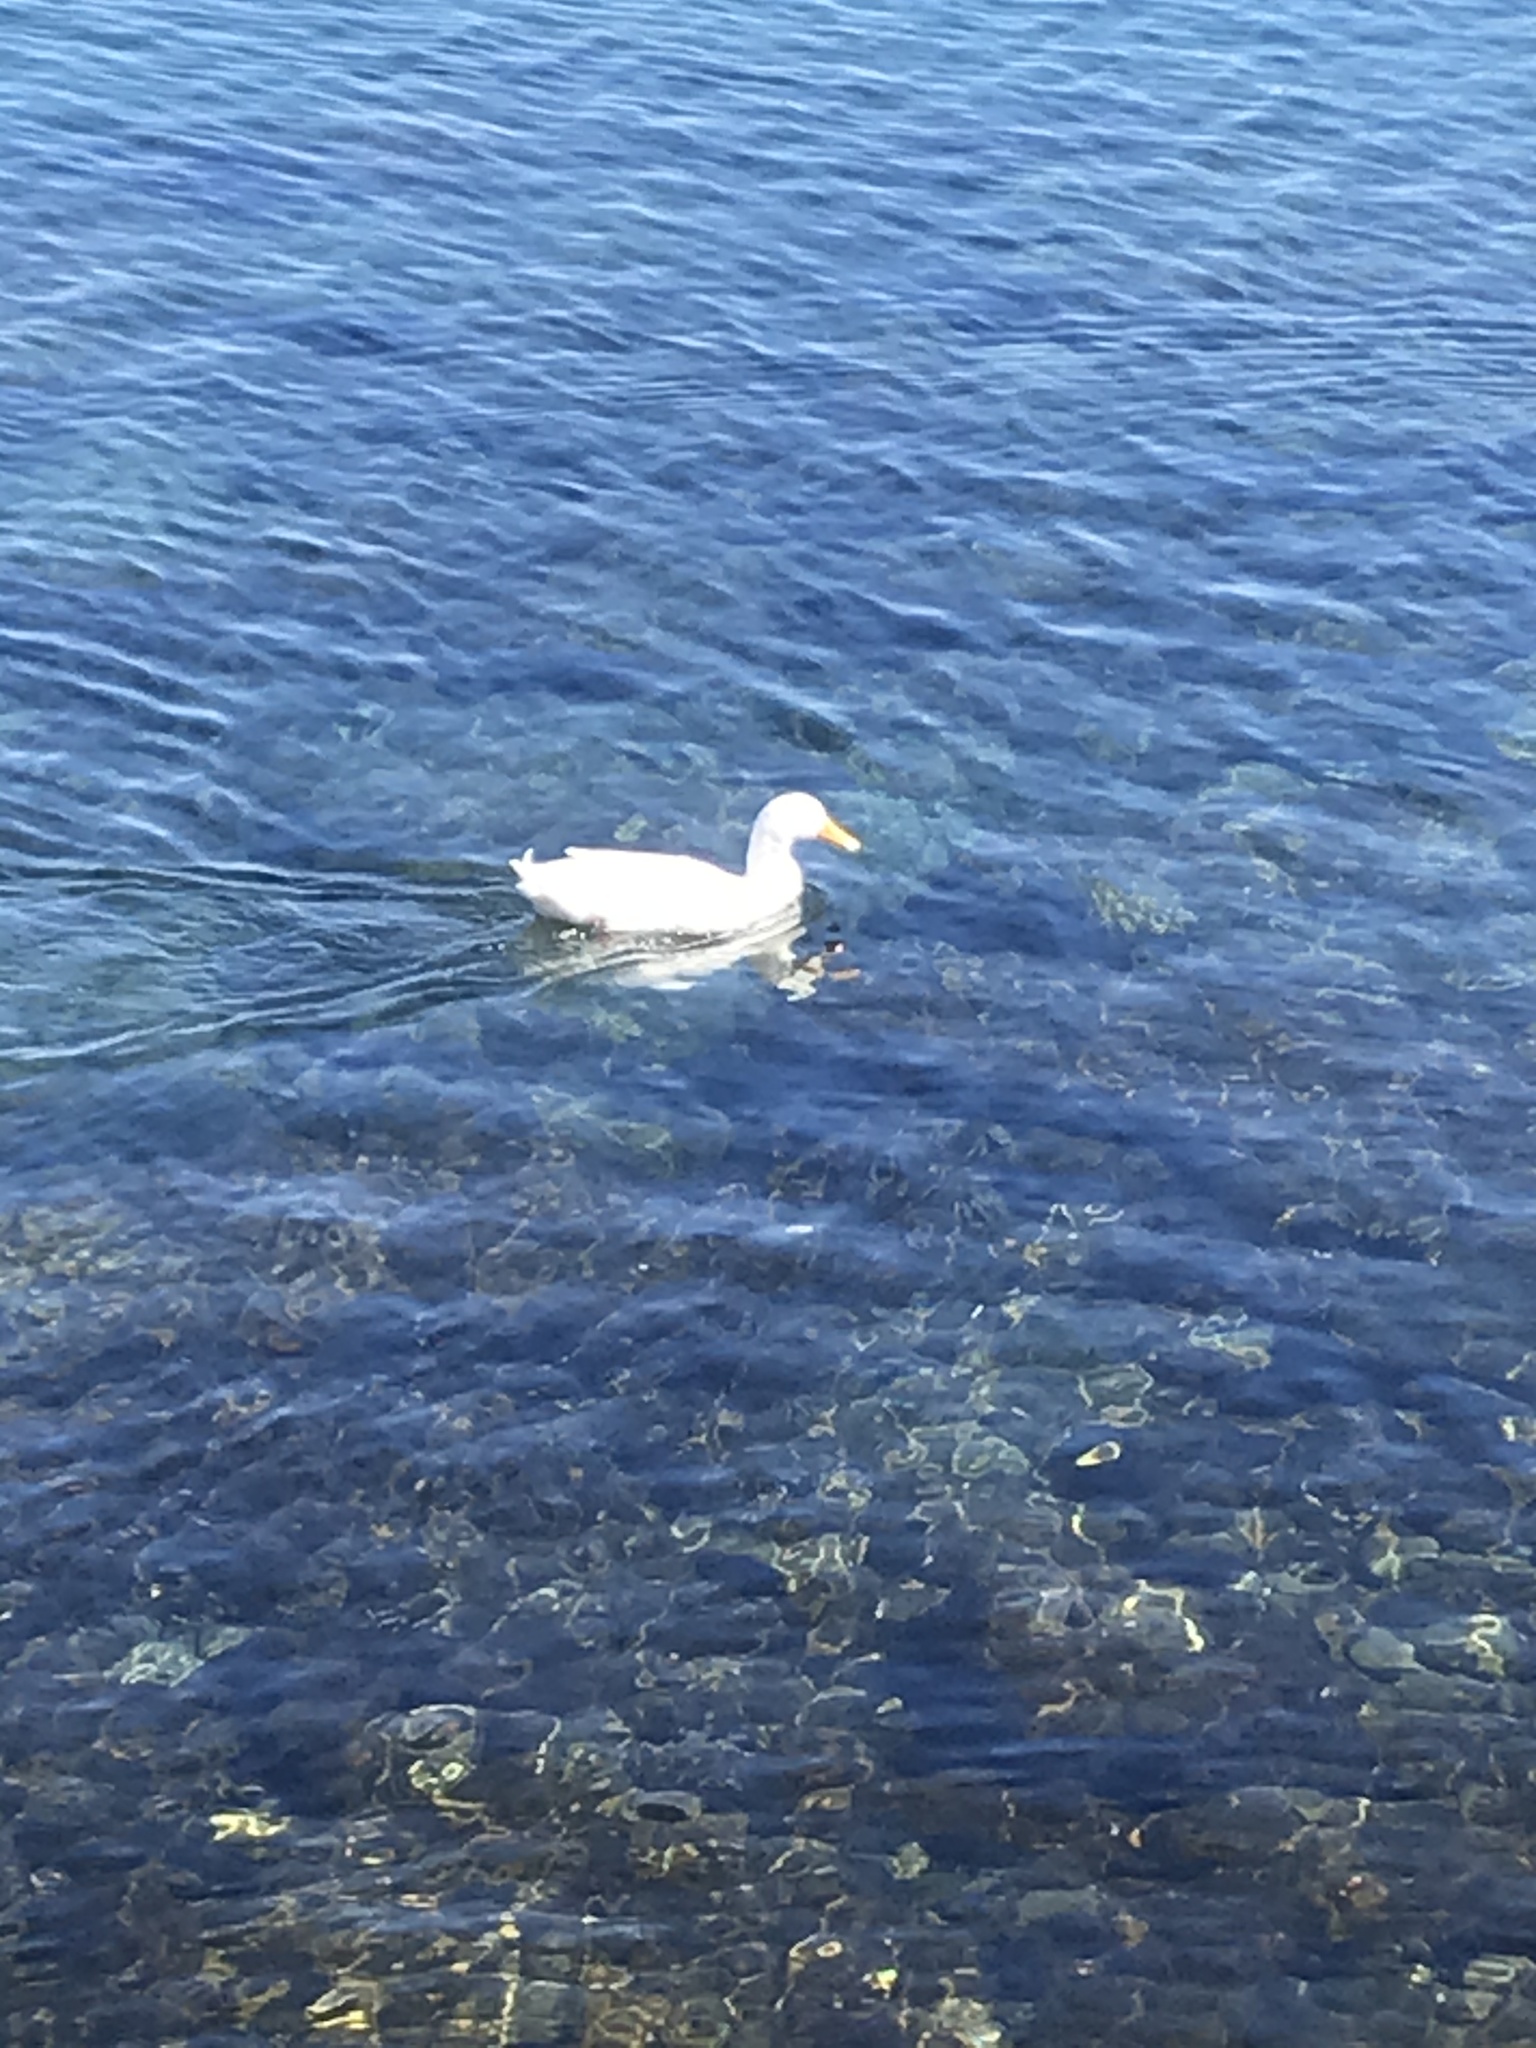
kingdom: Animalia
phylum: Chordata
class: Aves
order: Anseriformes
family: Anatidae
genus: Anas
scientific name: Anas platyrhynchos
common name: Mallard
